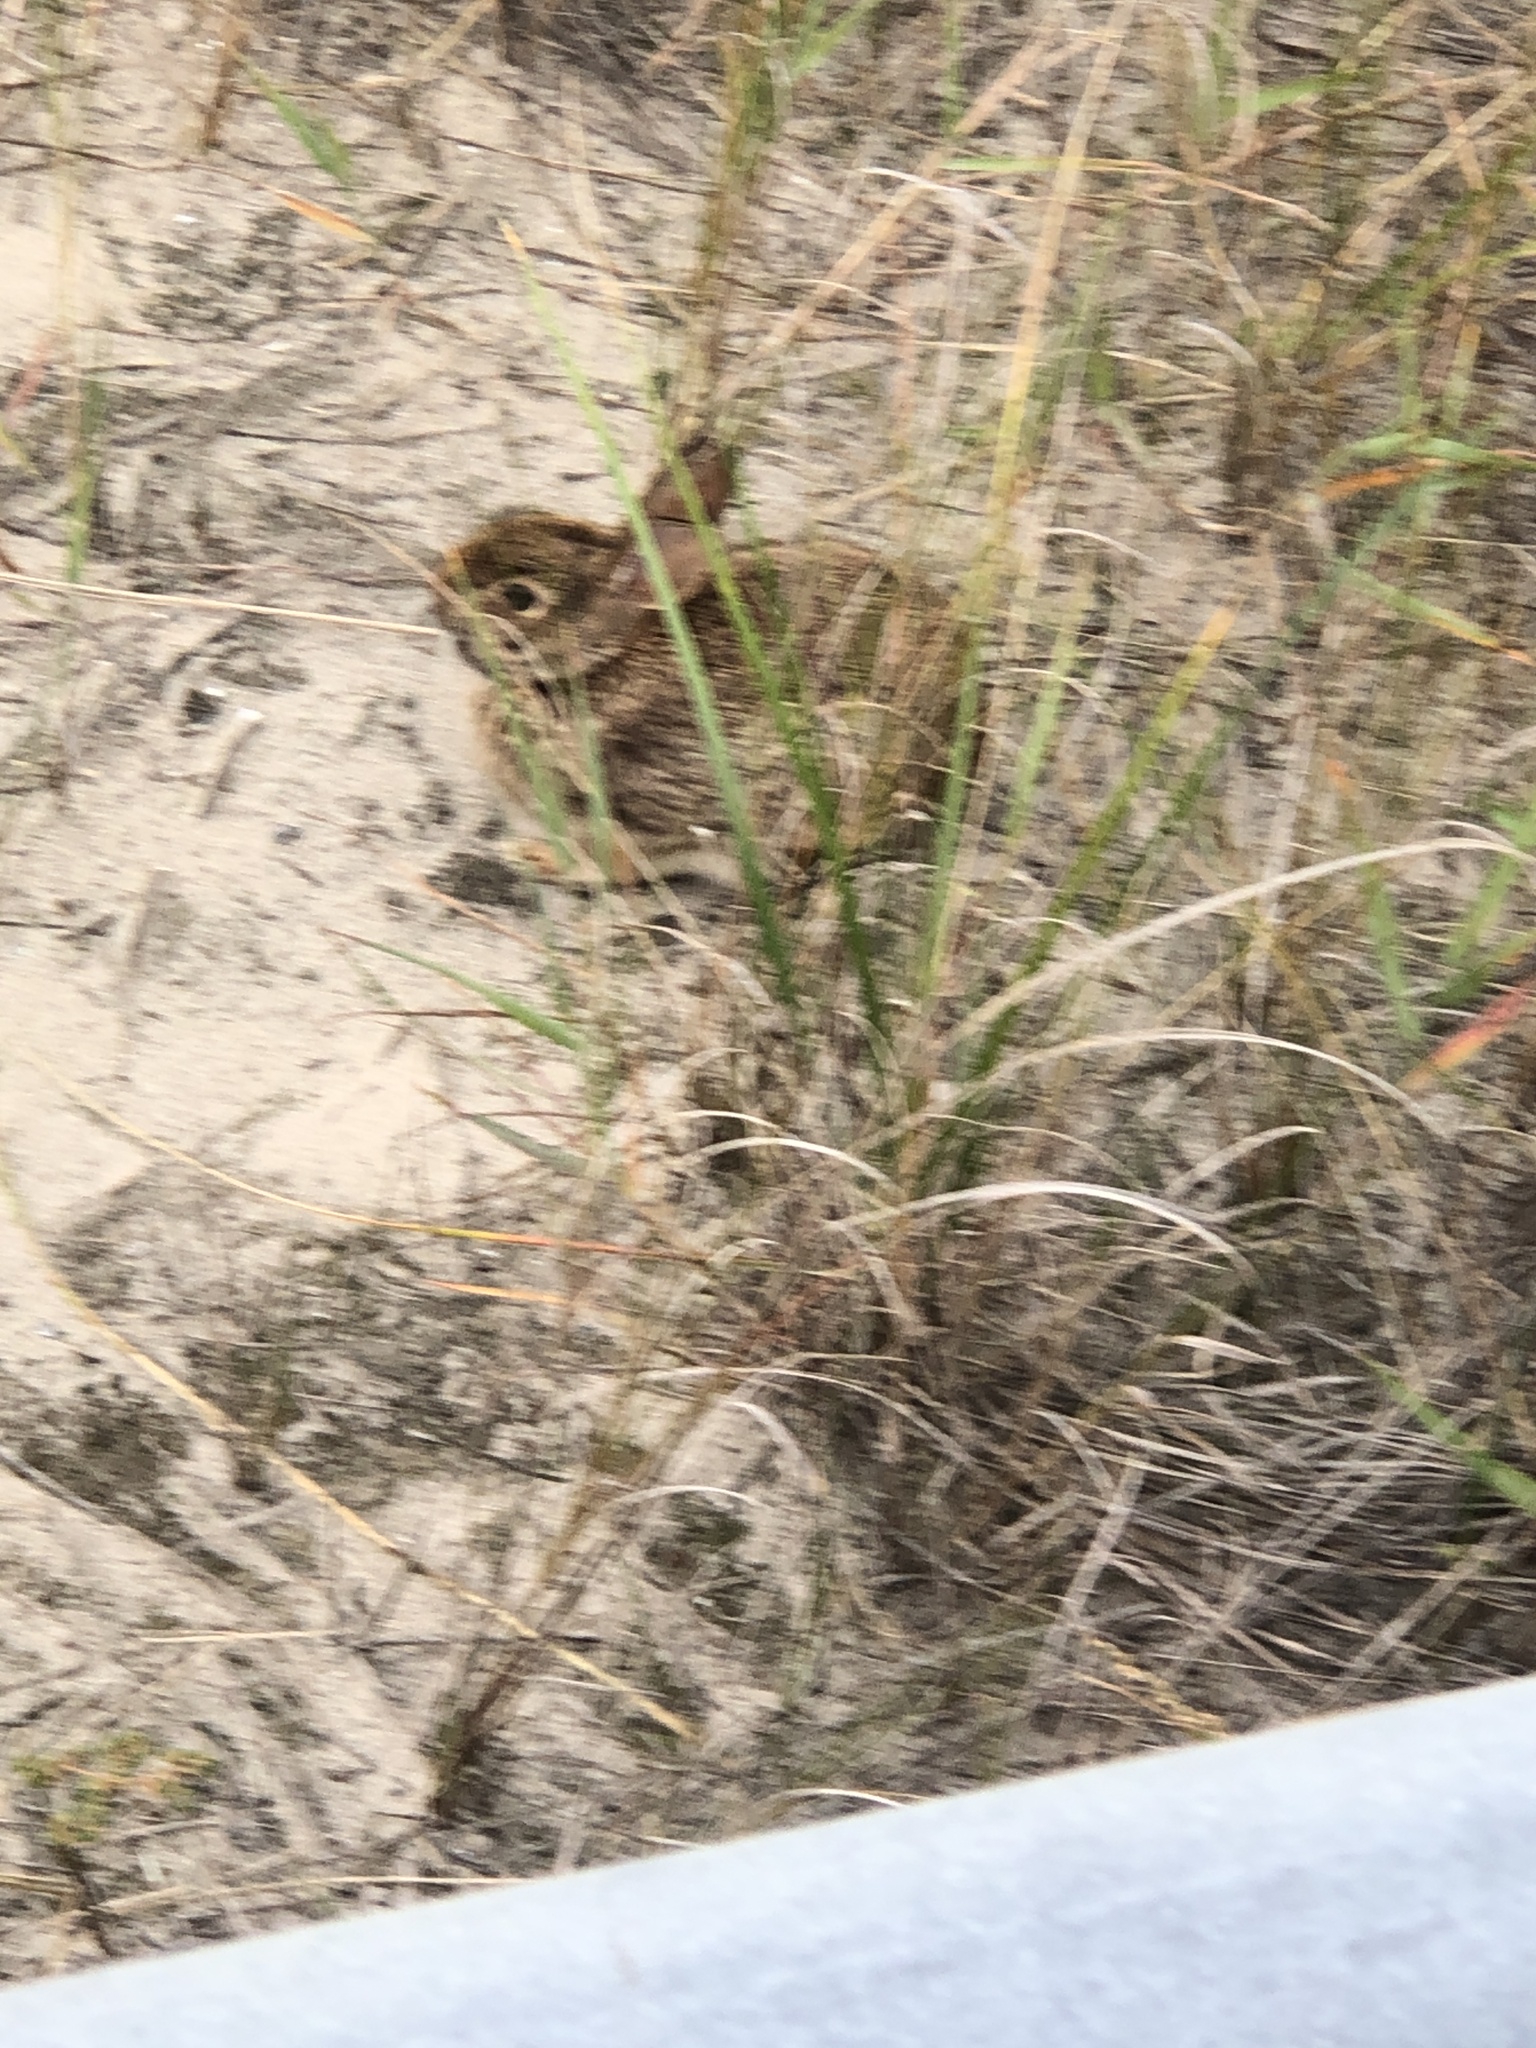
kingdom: Animalia
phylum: Chordata
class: Mammalia
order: Lagomorpha
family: Leporidae
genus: Sylvilagus
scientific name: Sylvilagus floridanus
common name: Eastern cottontail
